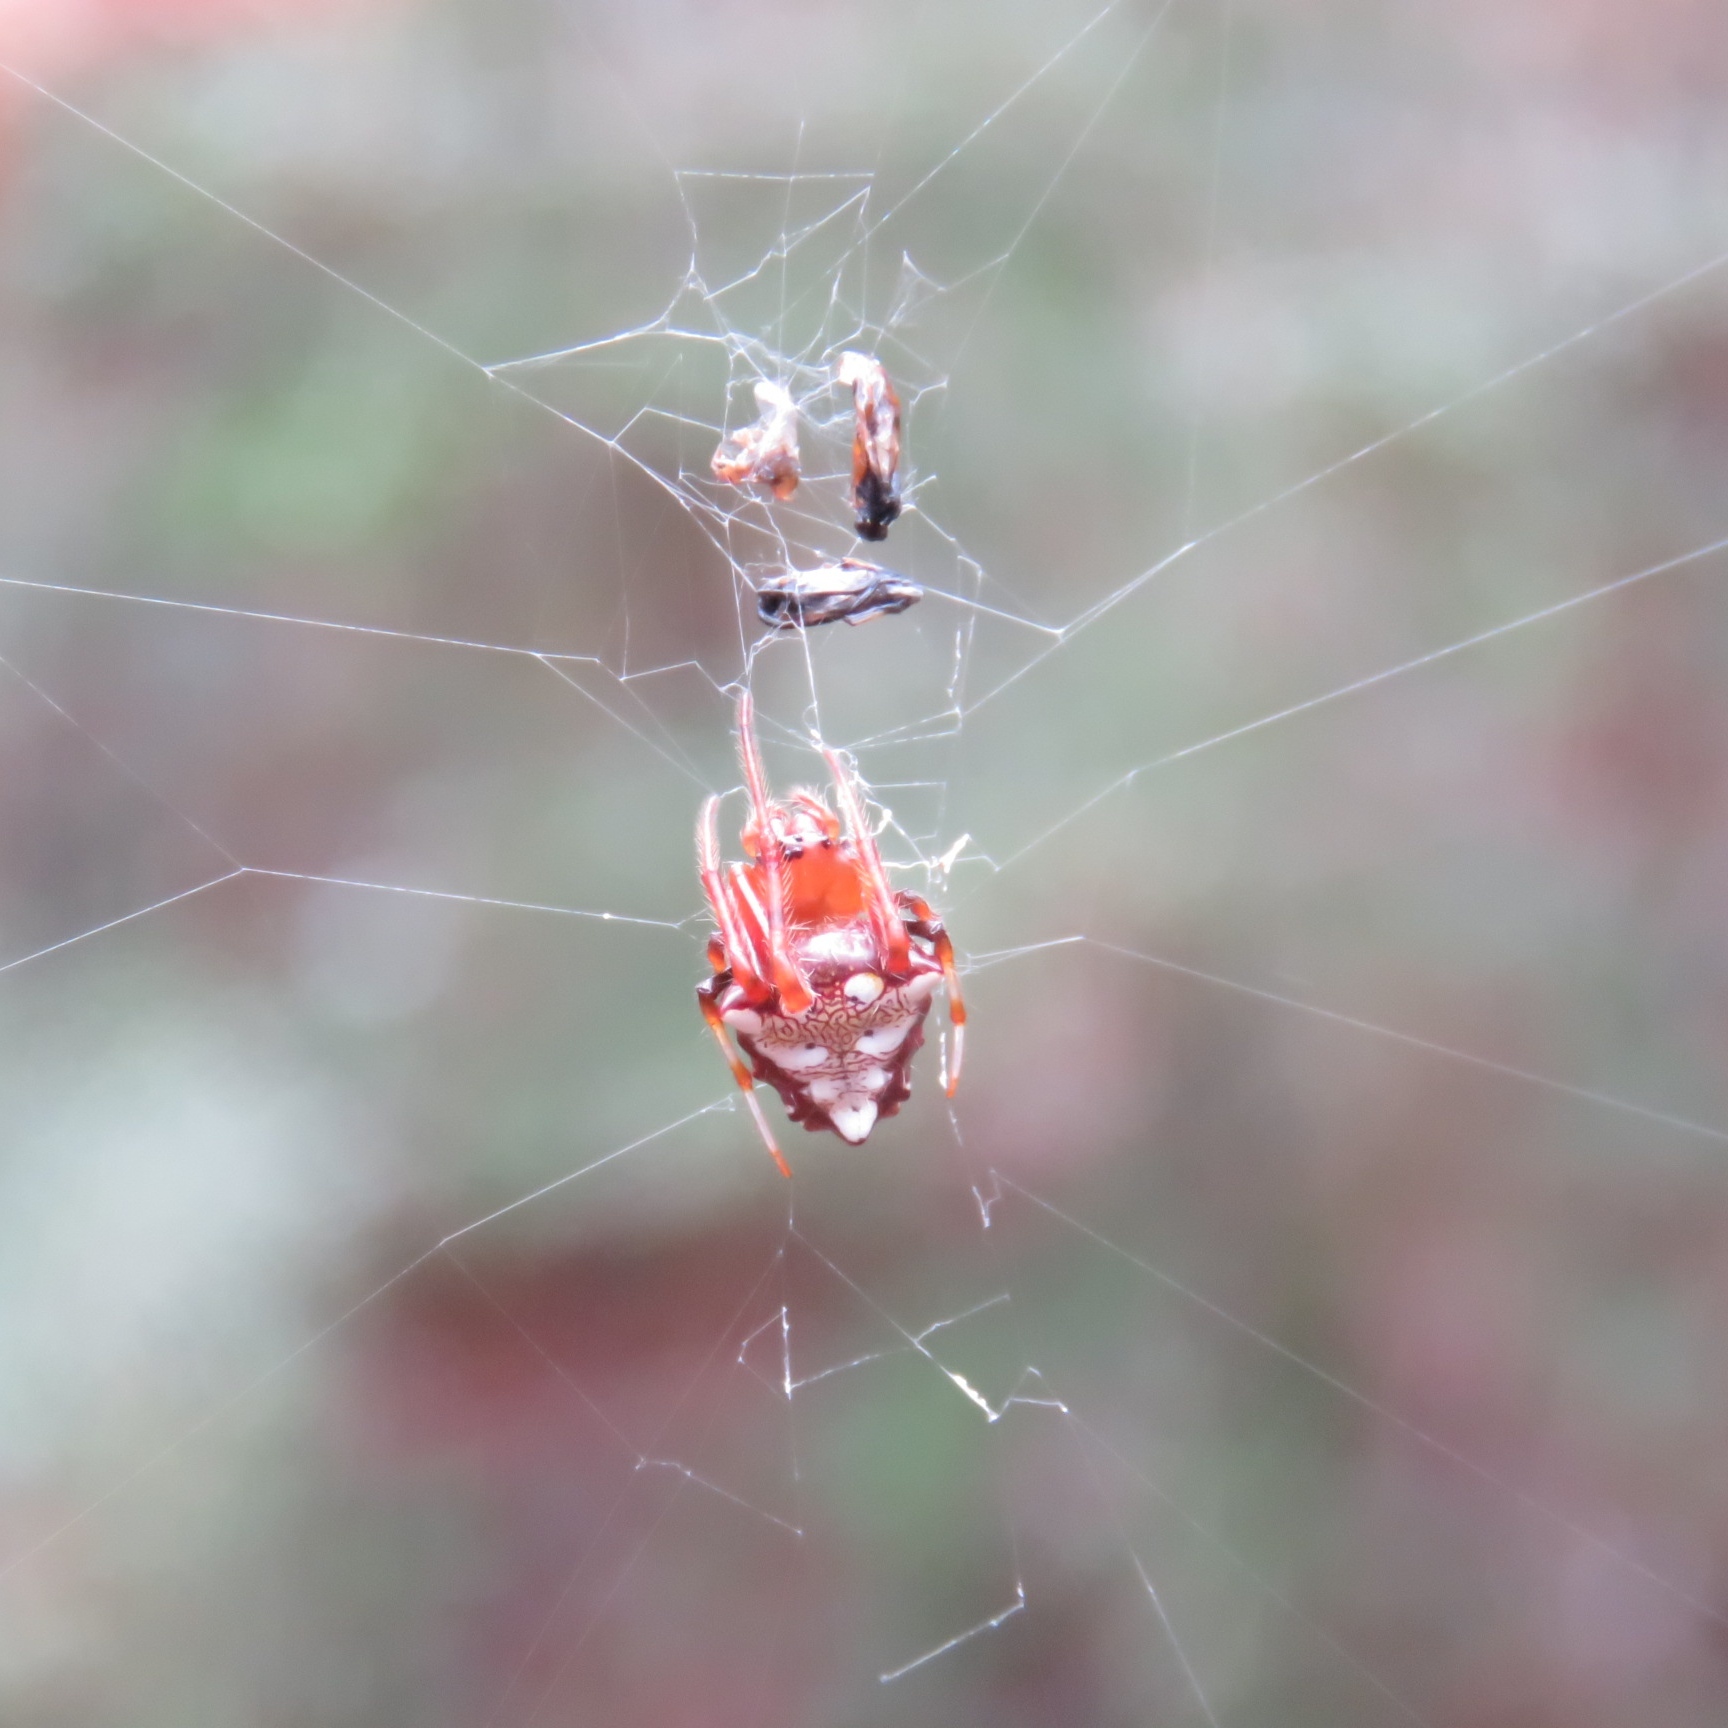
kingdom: Animalia
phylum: Arthropoda
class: Arachnida
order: Araneae
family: Araneidae
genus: Verrucosa
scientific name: Verrucosa arenata
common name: Orb weavers
